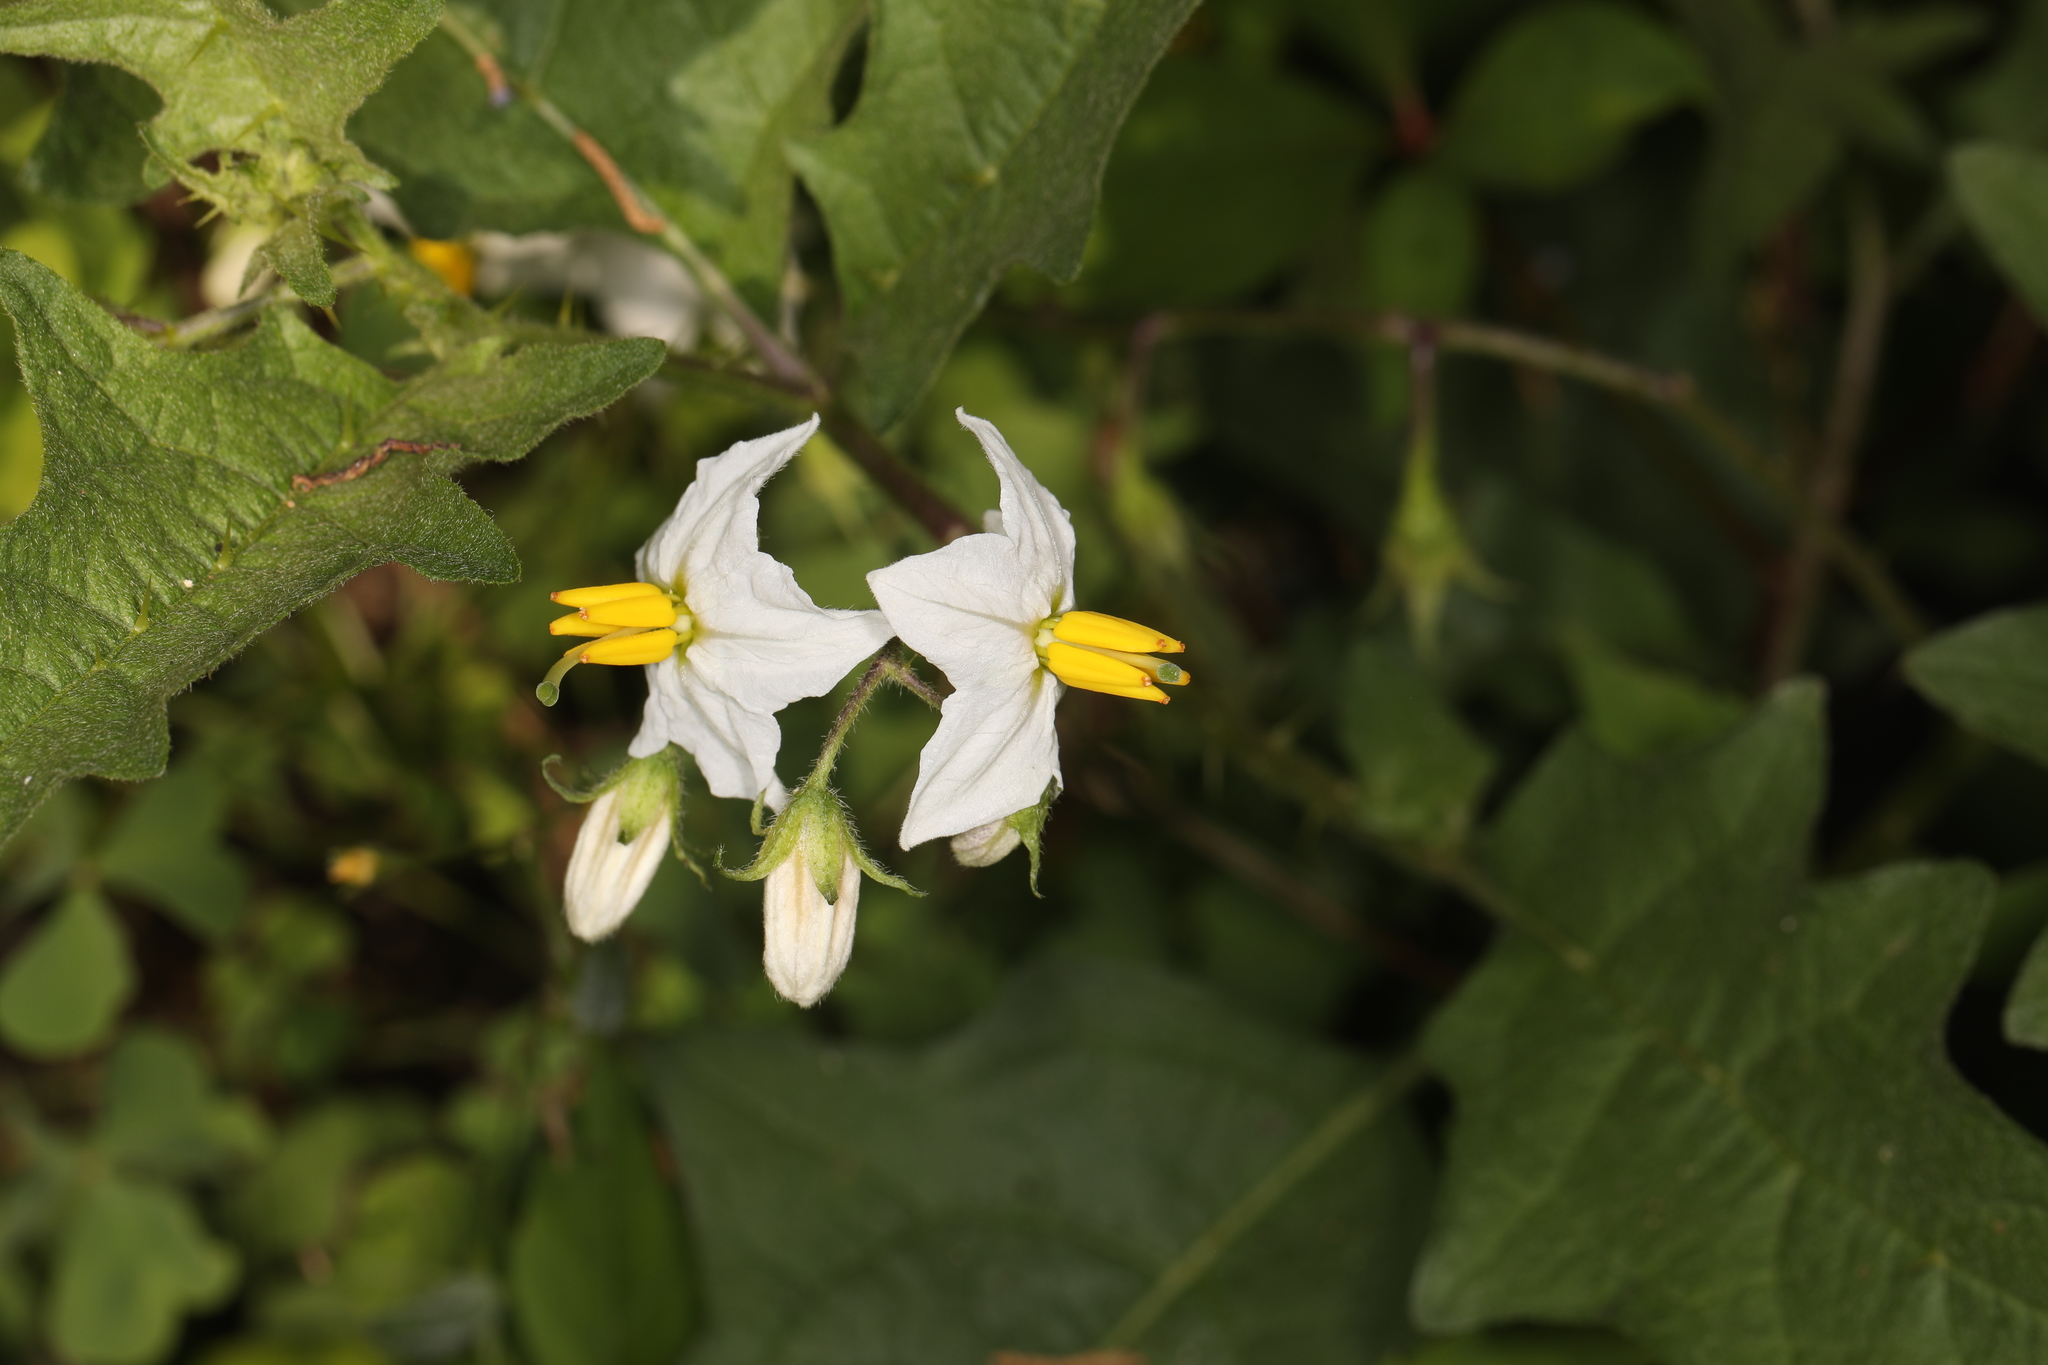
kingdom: Plantae
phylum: Tracheophyta
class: Magnoliopsida
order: Solanales
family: Solanaceae
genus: Solanum
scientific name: Solanum carolinense
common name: Horse-nettle
